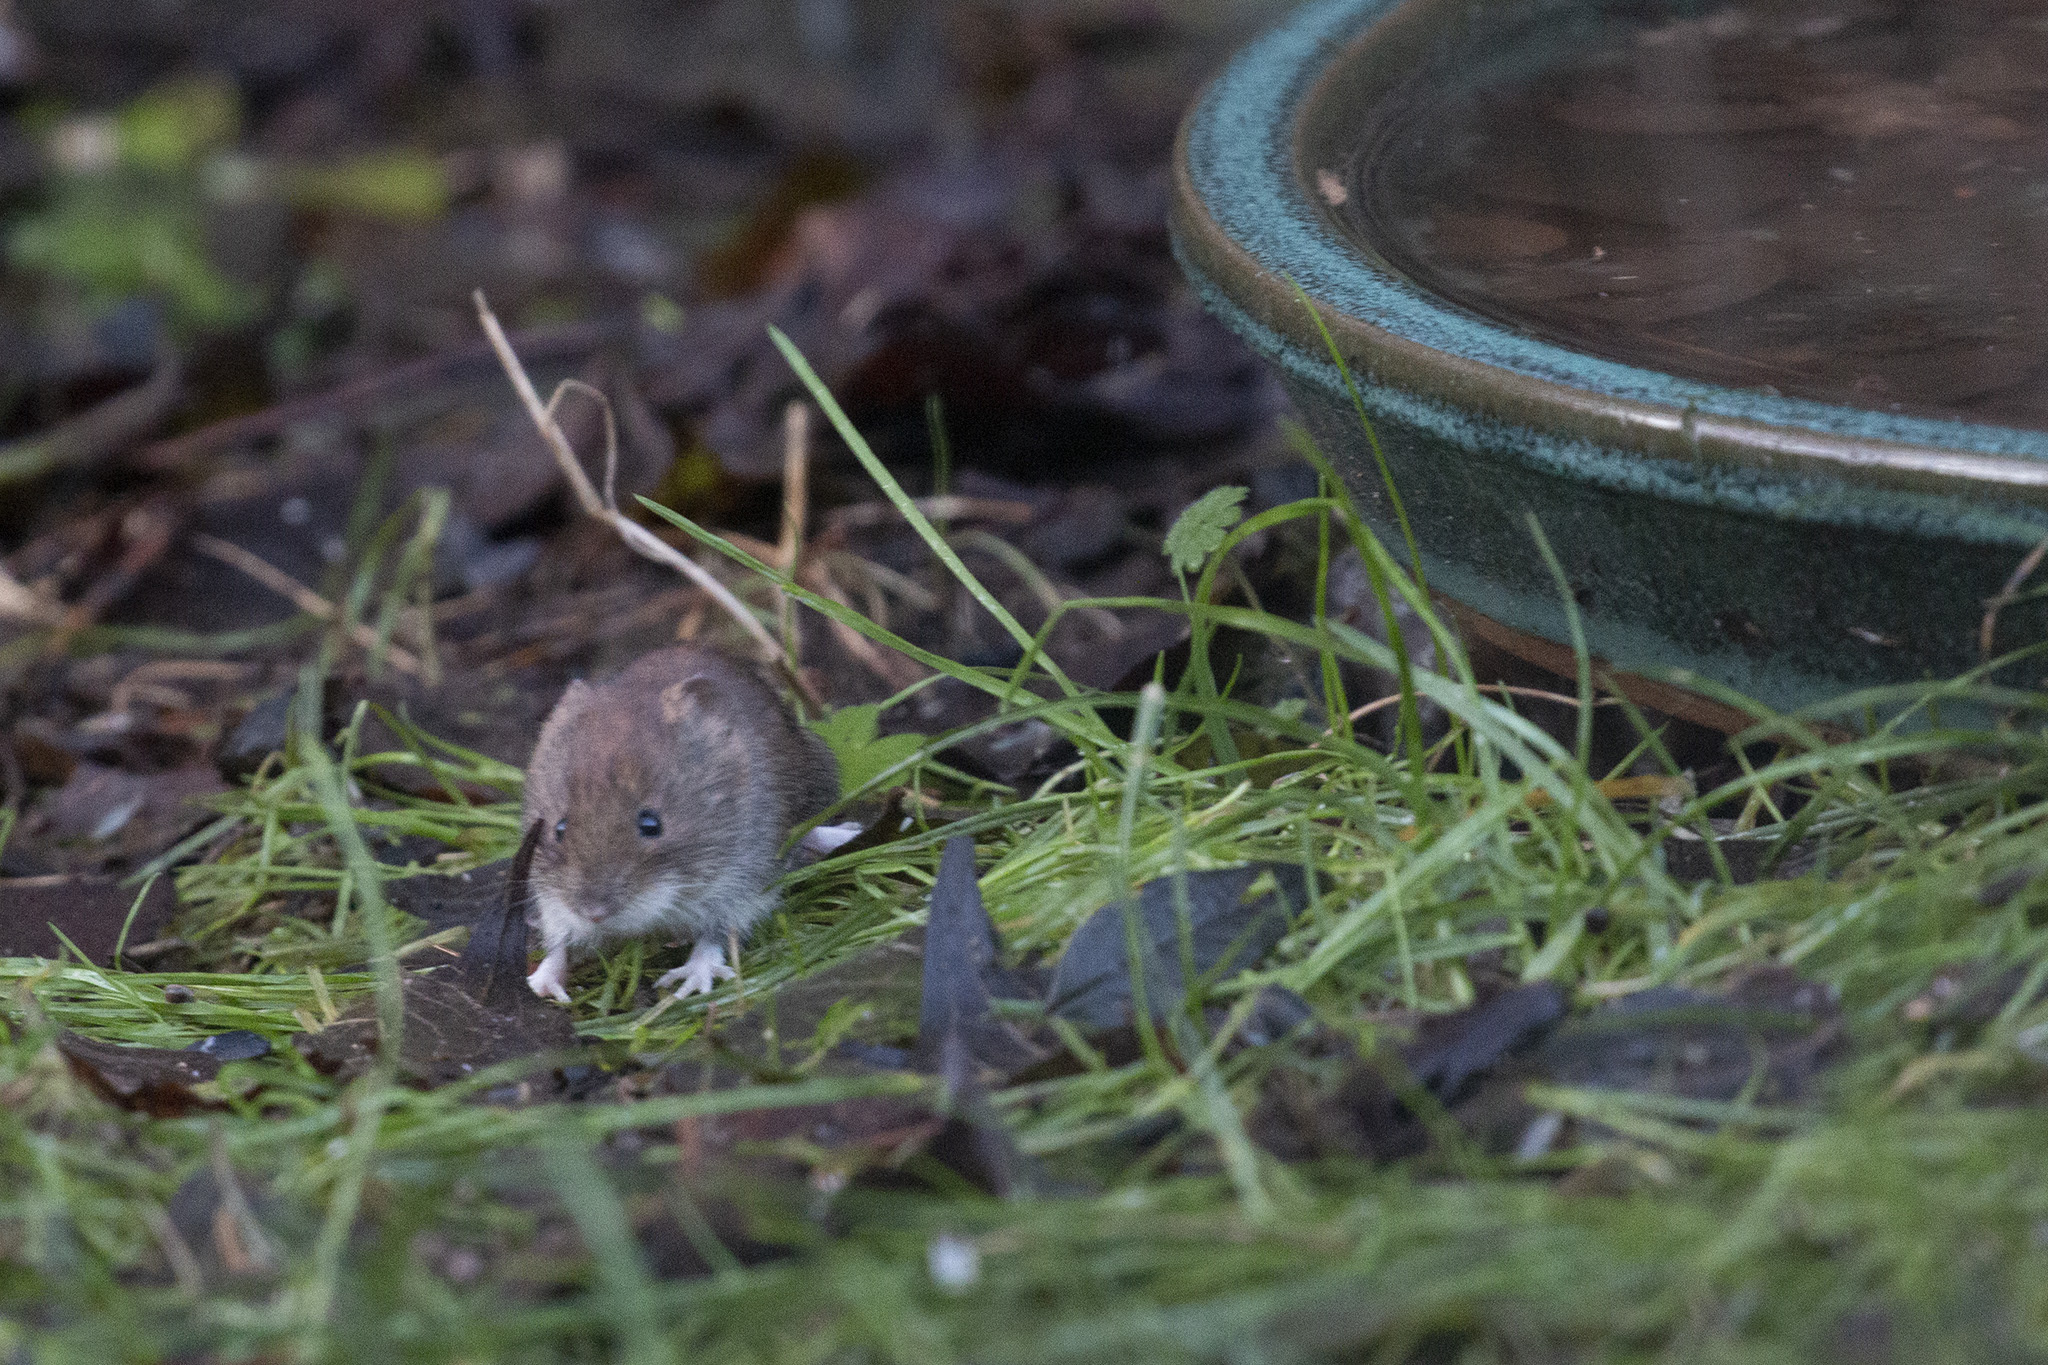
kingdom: Animalia
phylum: Chordata
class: Mammalia
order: Rodentia
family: Cricetidae
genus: Myodes
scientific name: Myodes glareolus
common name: Bank vole
